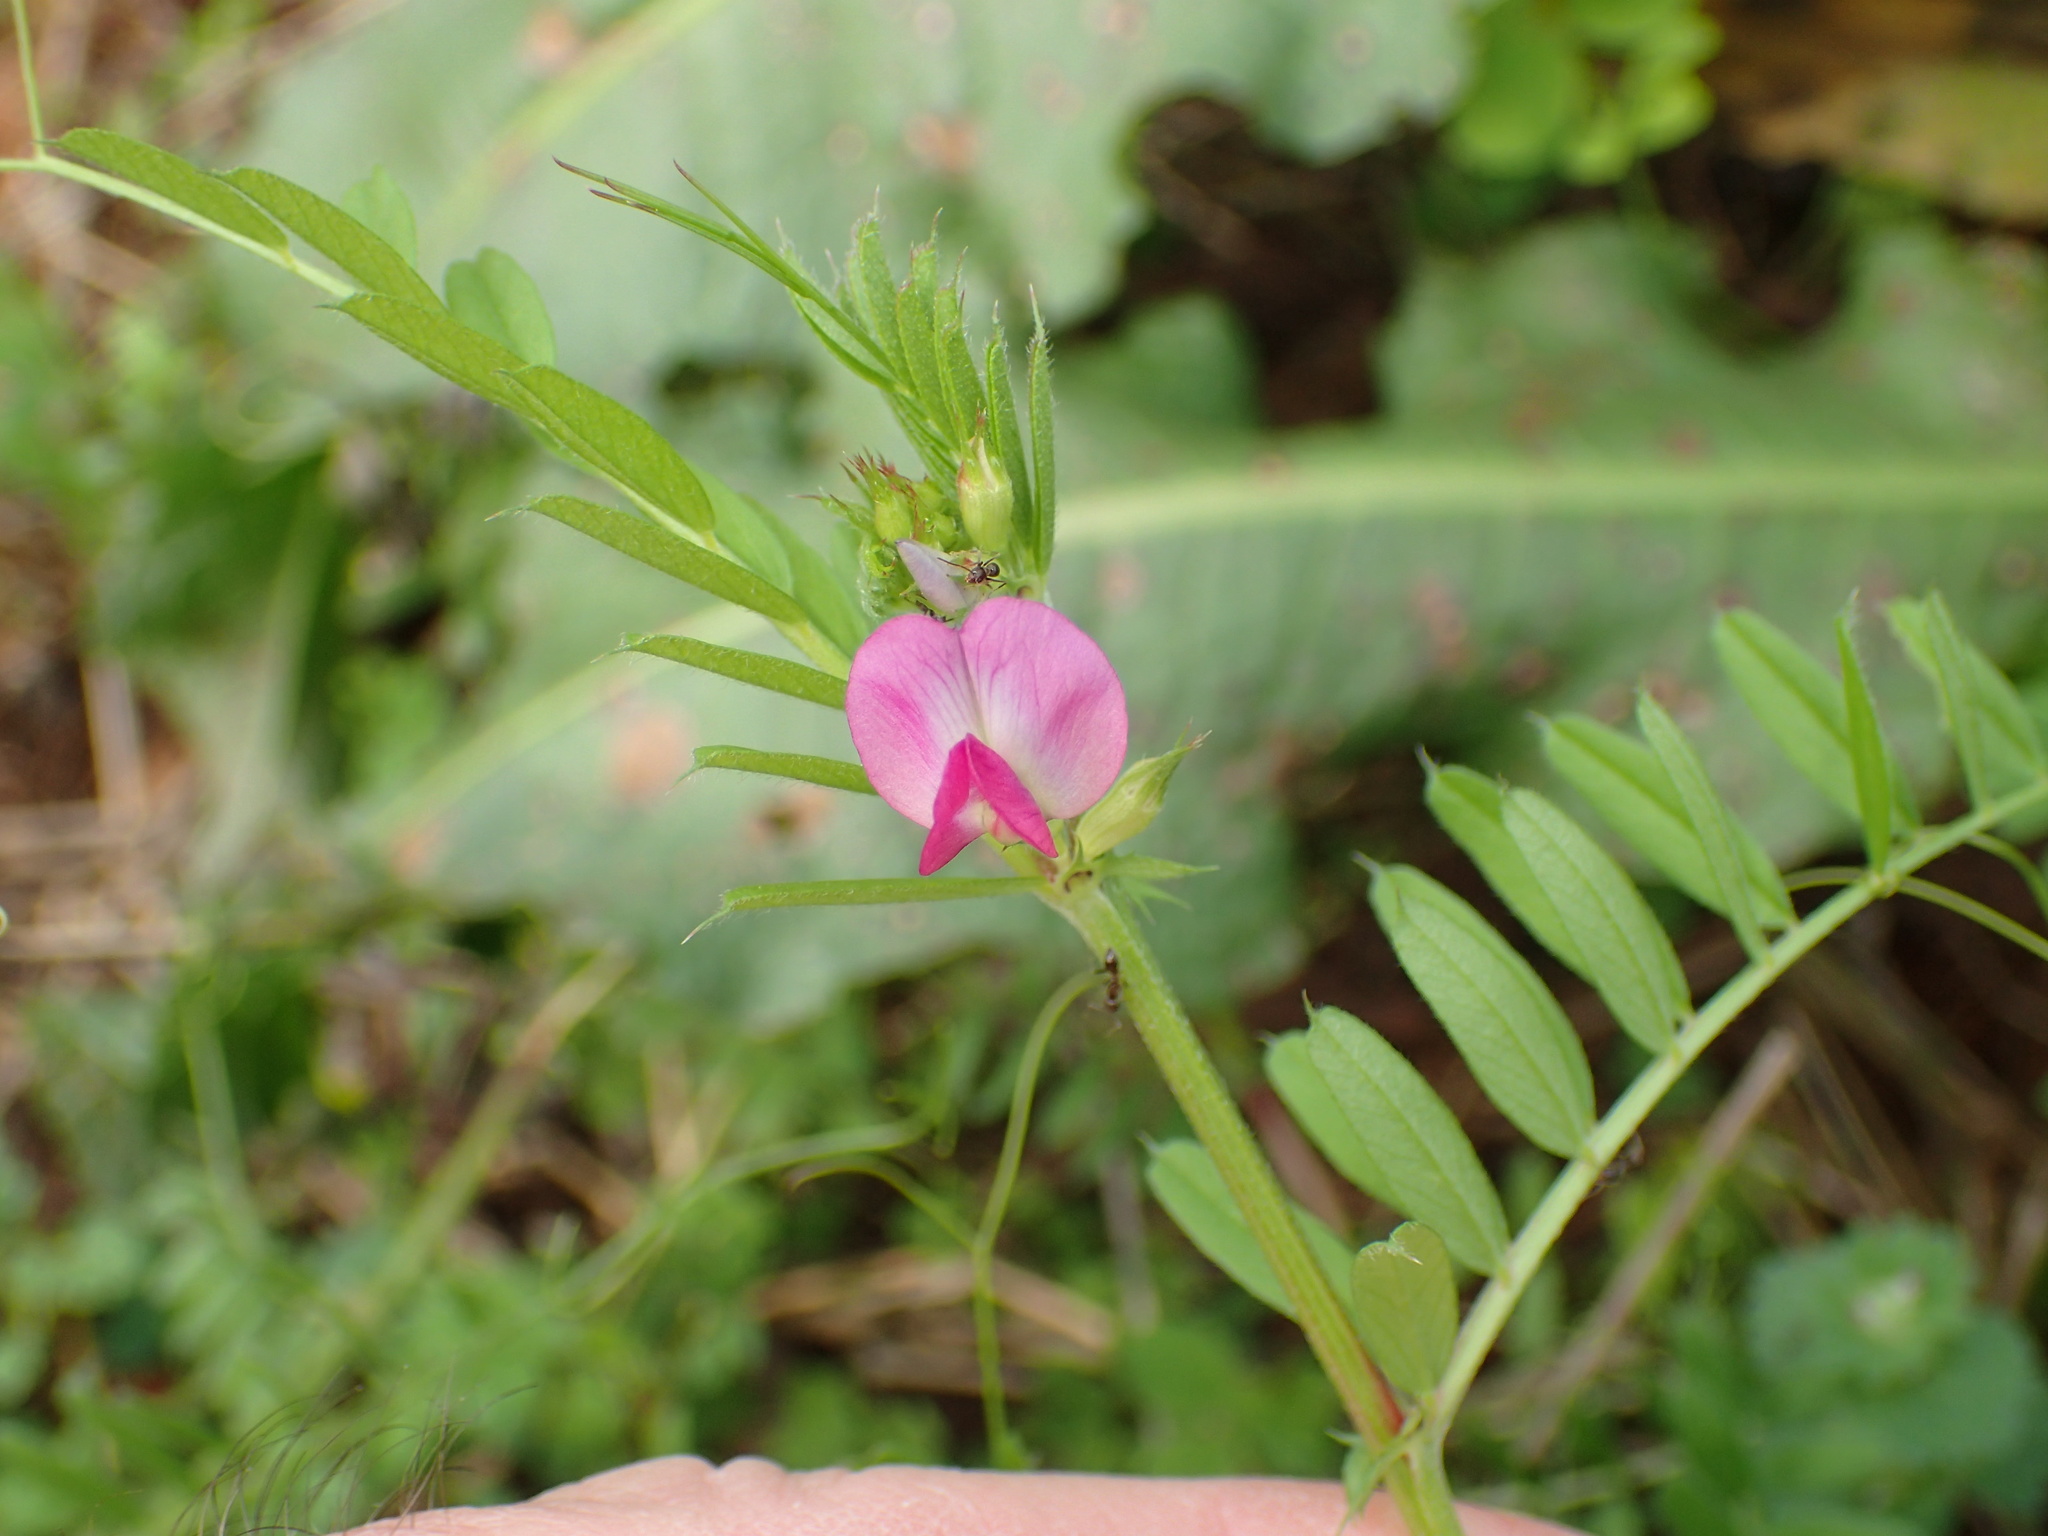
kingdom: Plantae
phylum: Tracheophyta
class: Magnoliopsida
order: Fabales
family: Fabaceae
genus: Vicia
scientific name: Vicia sativa
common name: Garden vetch
